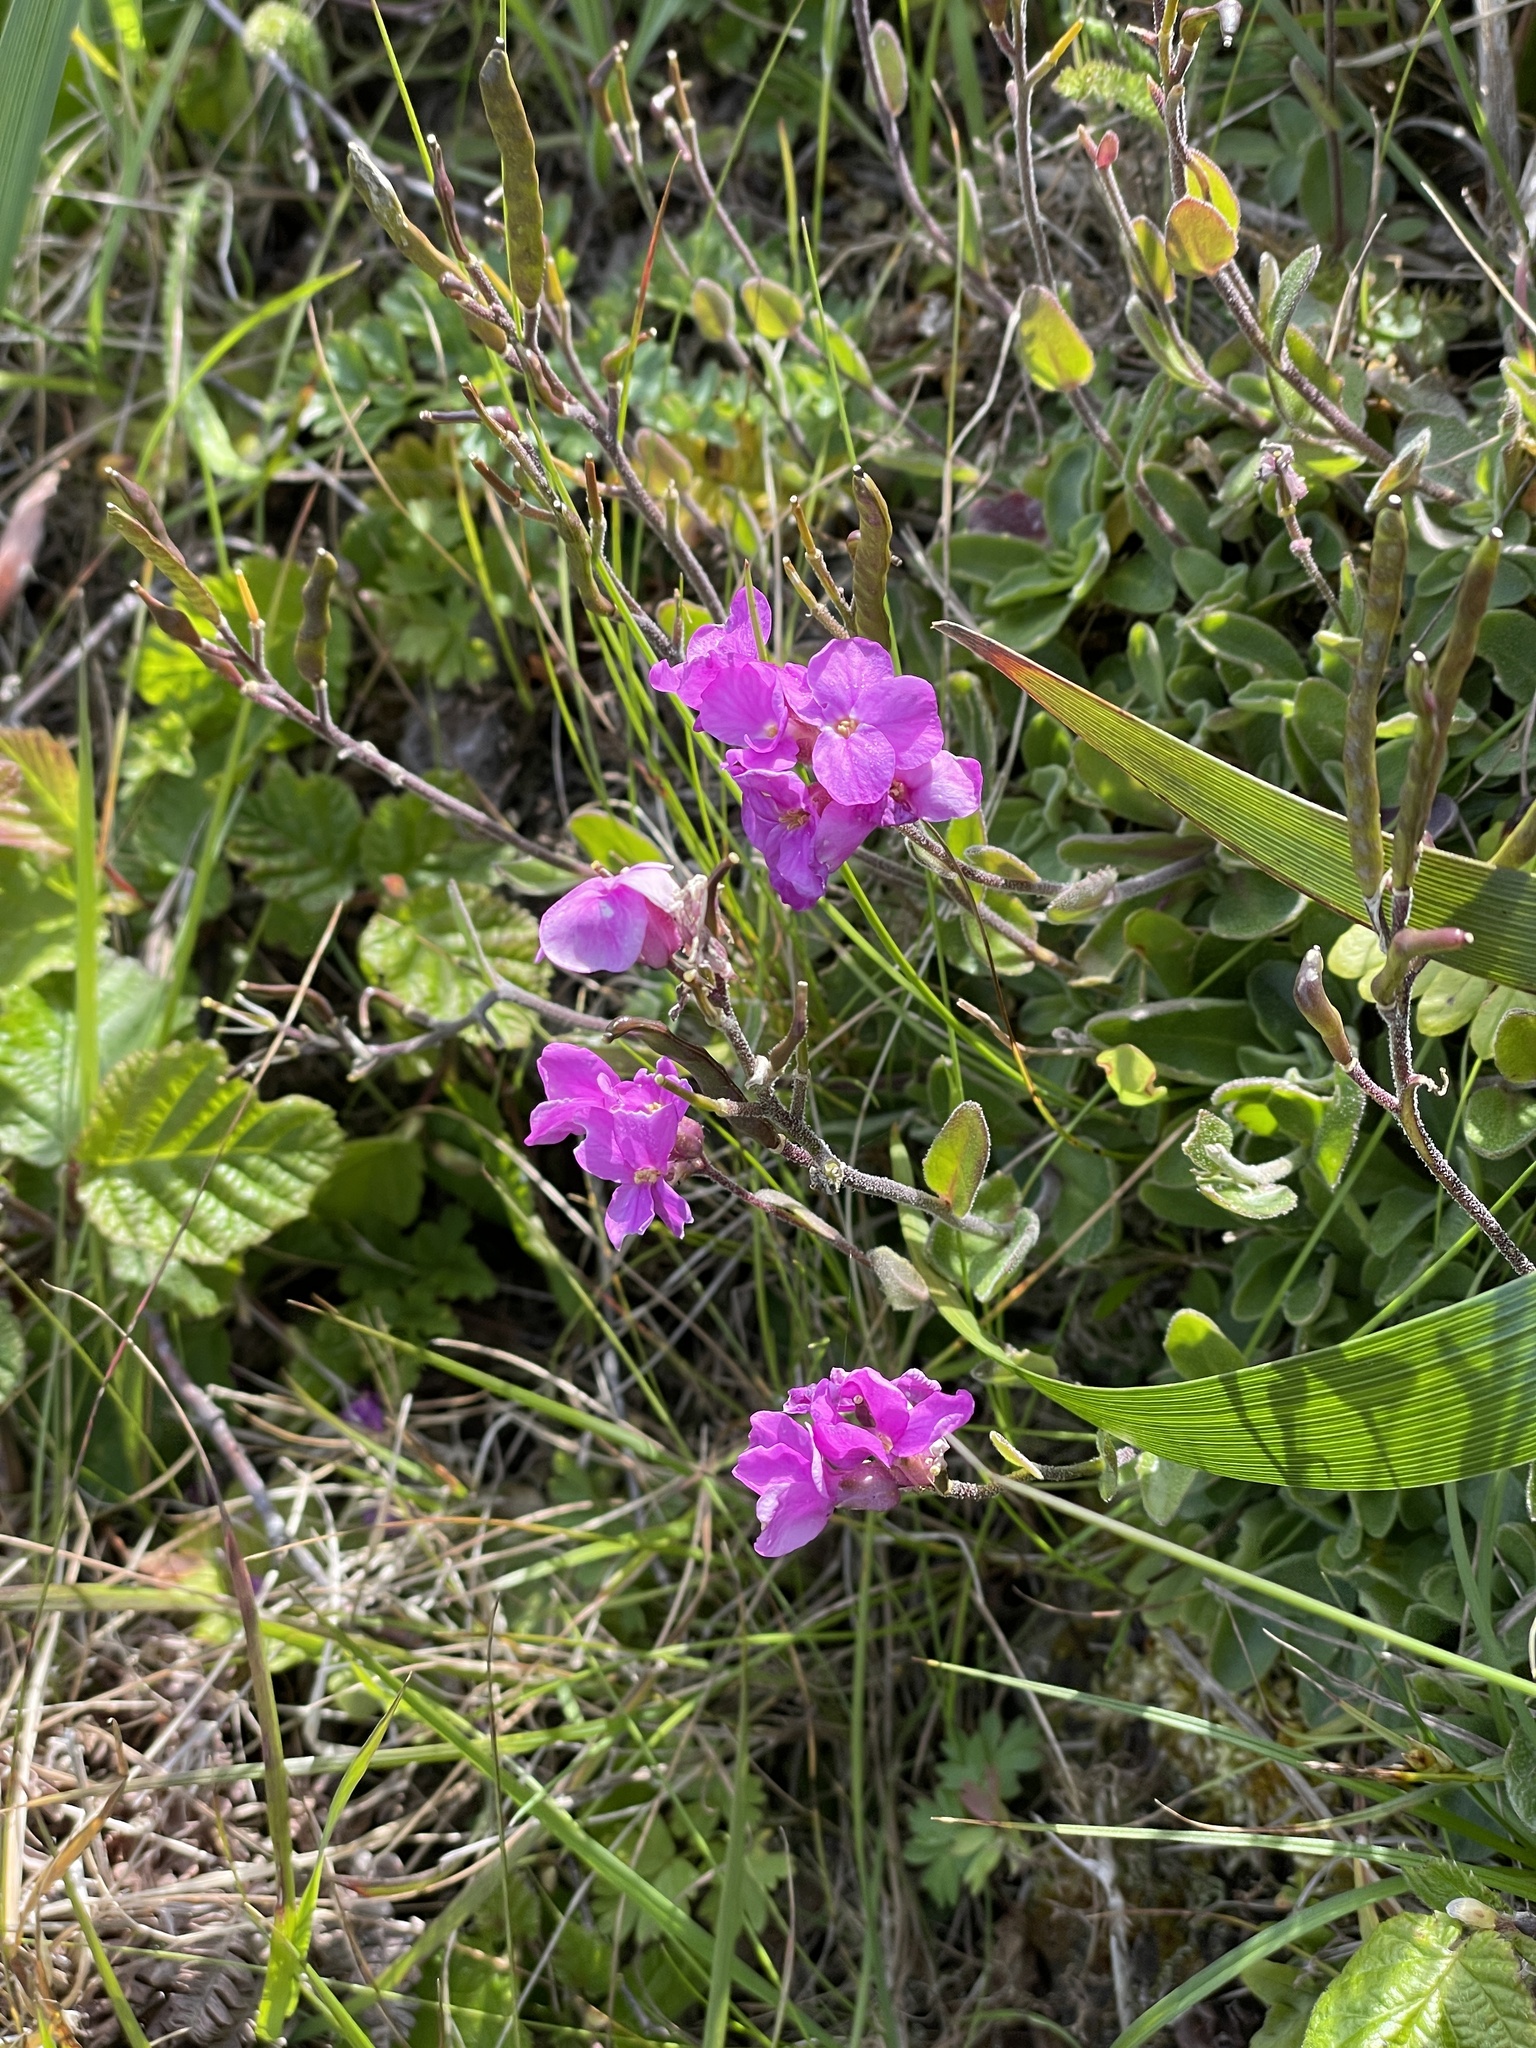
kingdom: Plantae
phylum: Tracheophyta
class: Magnoliopsida
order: Brassicales
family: Brassicaceae
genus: Arabis
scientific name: Arabis blepharophylla
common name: Rose rockcress
